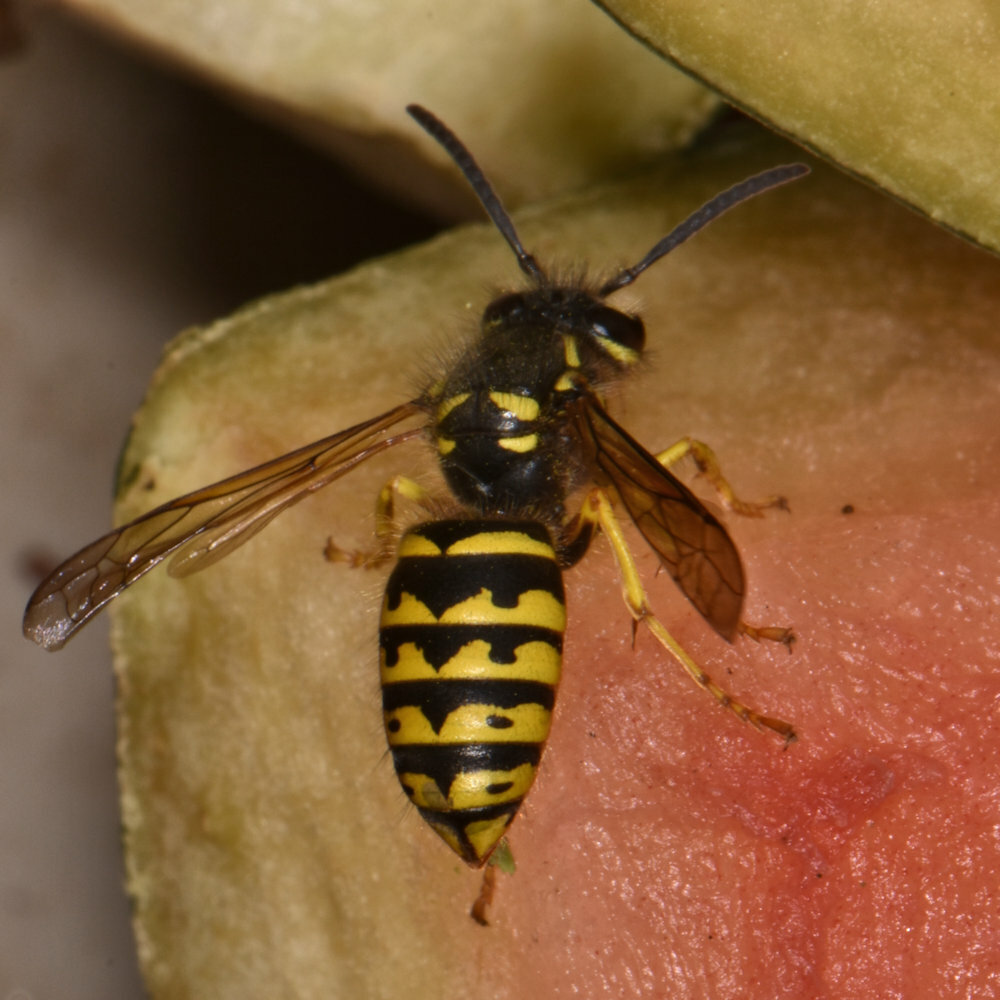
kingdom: Animalia
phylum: Arthropoda
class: Insecta
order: Hymenoptera
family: Vespidae
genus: Dolichovespula
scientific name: Dolichovespula arenaria
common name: Aerial yellowjacket
